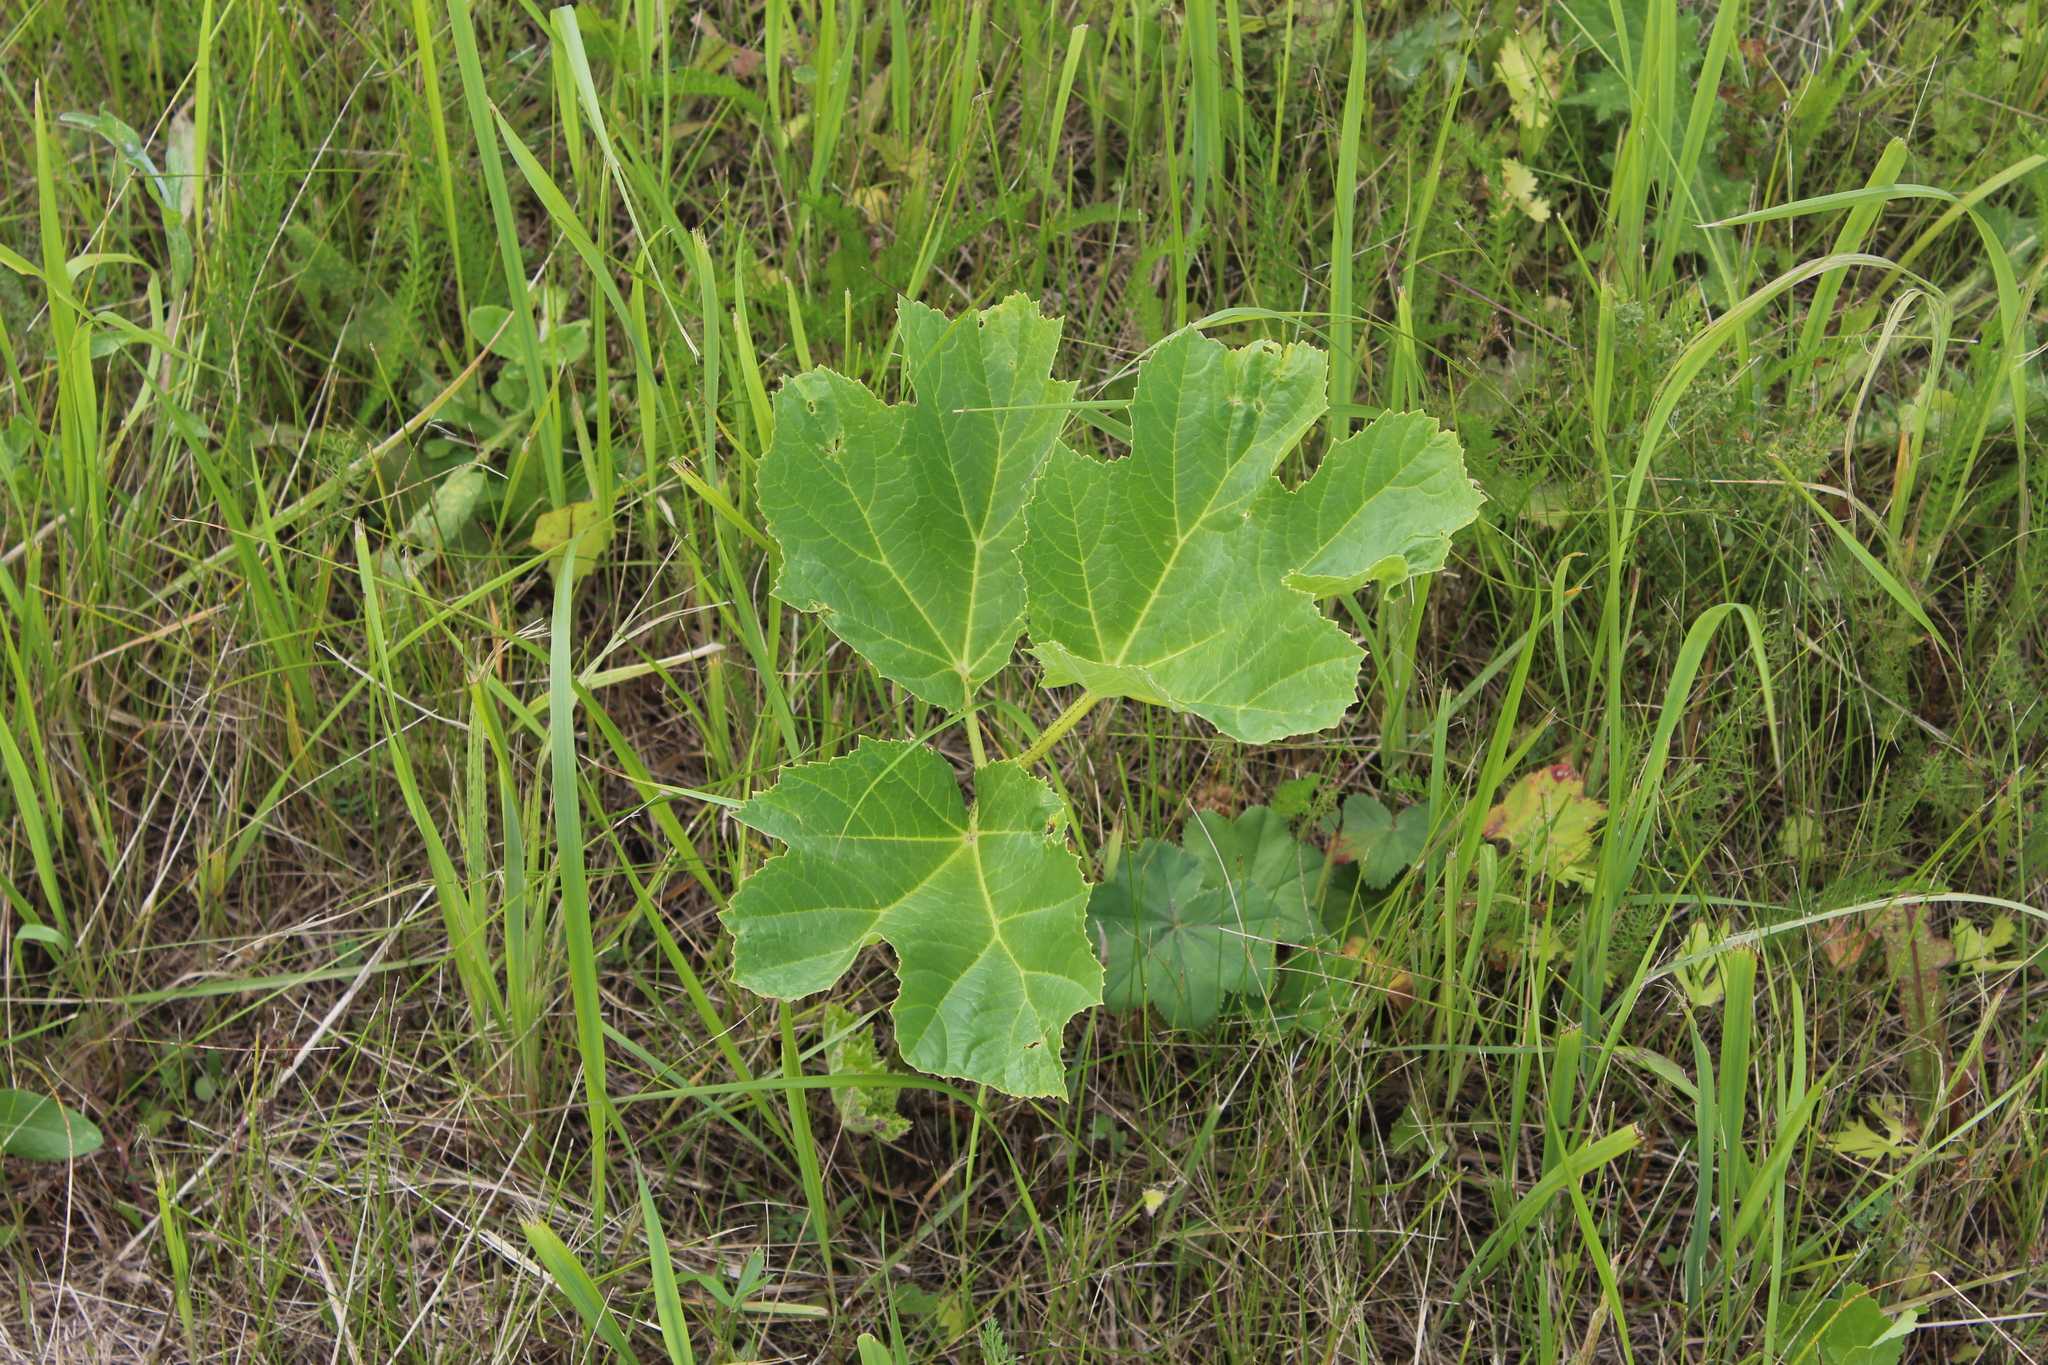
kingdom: Plantae
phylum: Tracheophyta
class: Magnoliopsida
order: Apiales
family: Apiaceae
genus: Heracleum
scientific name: Heracleum sosnowskyi
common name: Sosnowsky's hogweed
